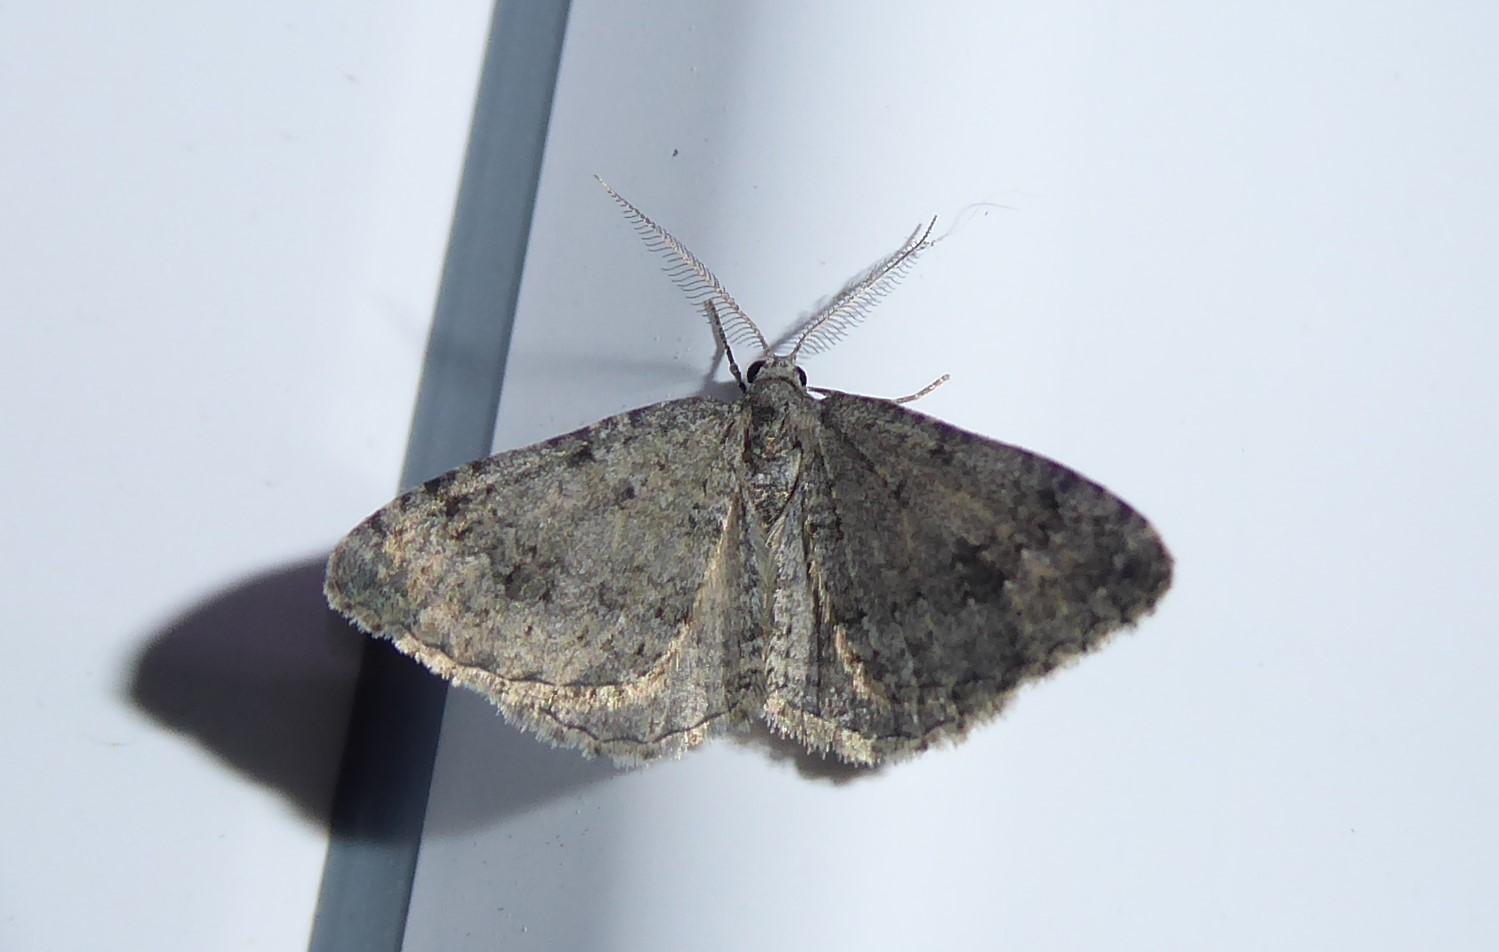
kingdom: Animalia
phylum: Arthropoda
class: Insecta
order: Lepidoptera
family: Geometridae
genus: Helastia
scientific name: Helastia corcularia
